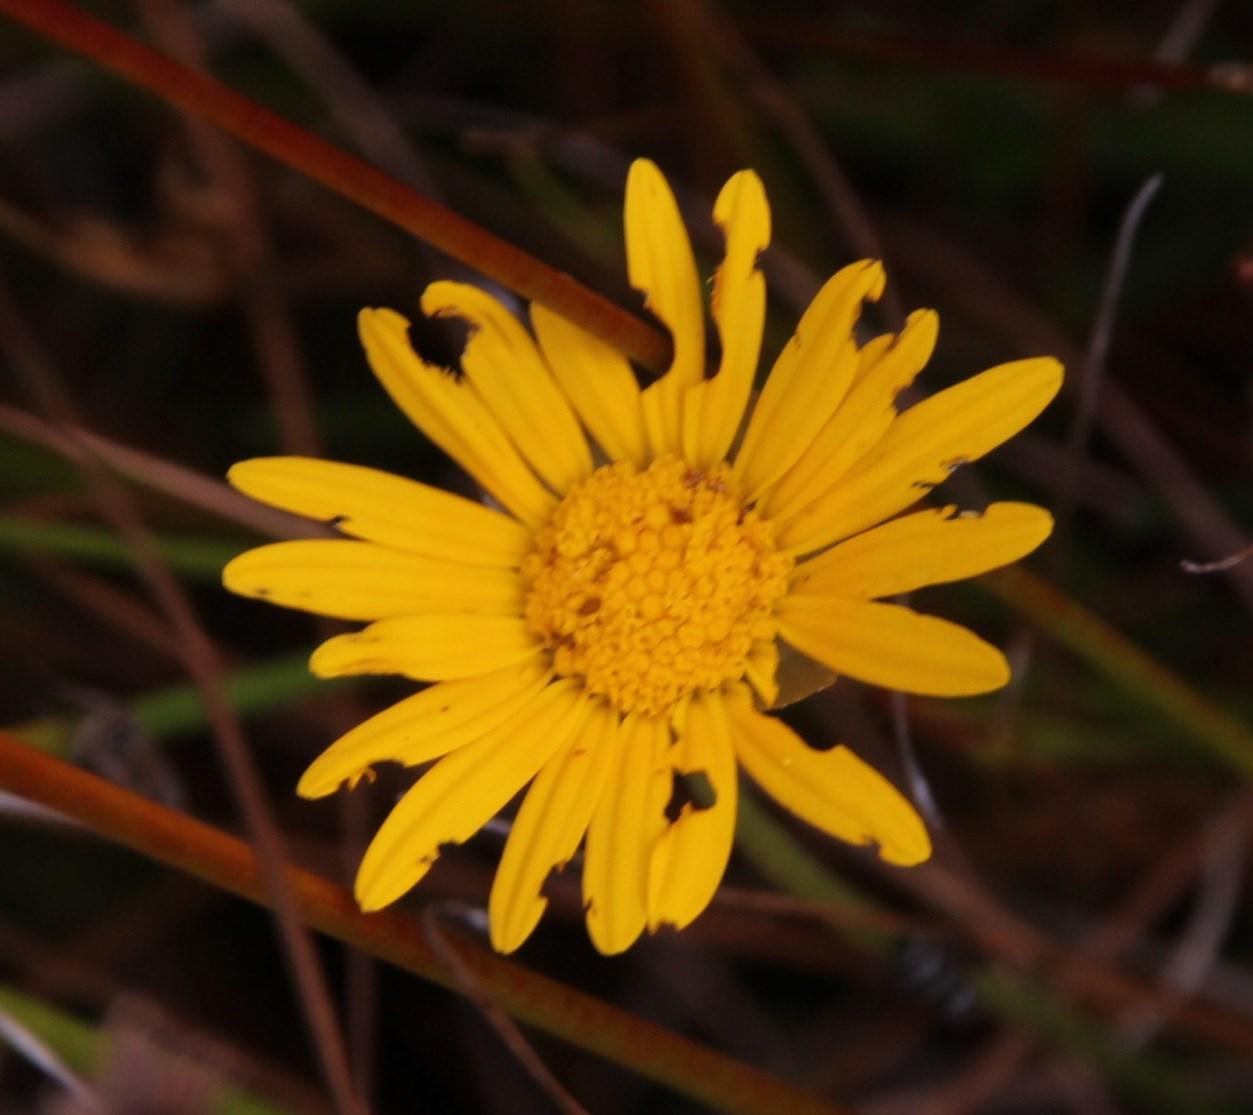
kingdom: Plantae
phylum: Tracheophyta
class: Magnoliopsida
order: Asterales
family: Asteraceae
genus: Ursinia
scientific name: Ursinia tenuifolia
